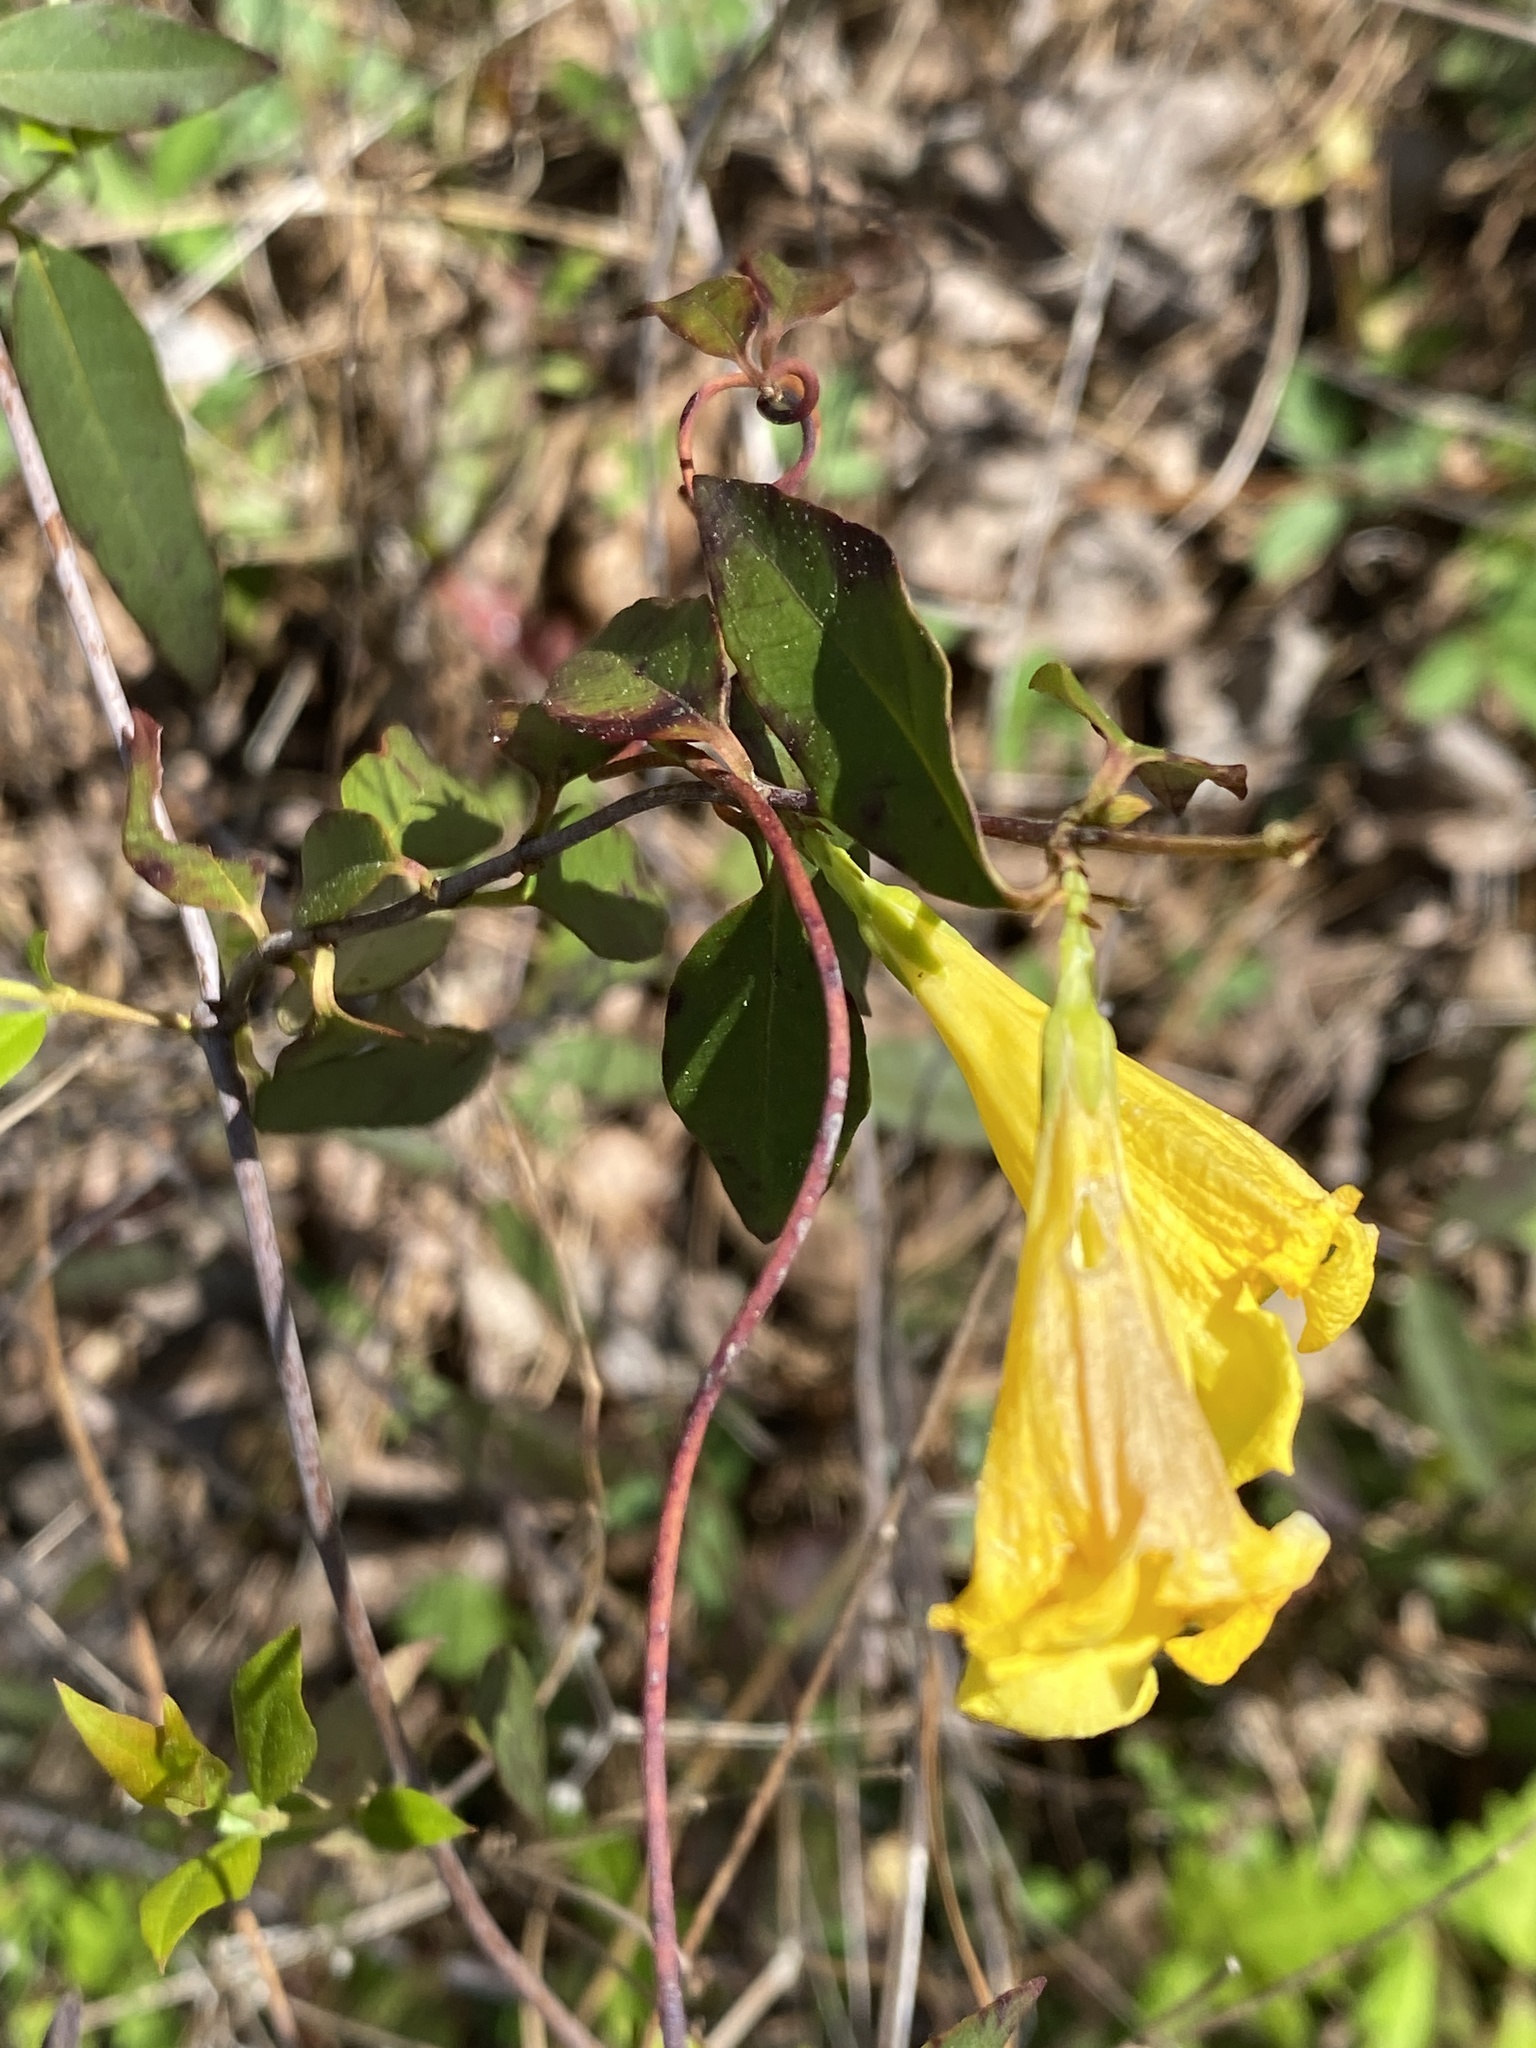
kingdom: Plantae
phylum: Tracheophyta
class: Magnoliopsida
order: Gentianales
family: Gelsemiaceae
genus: Gelsemium
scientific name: Gelsemium sempervirens
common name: Carolina-jasmine
